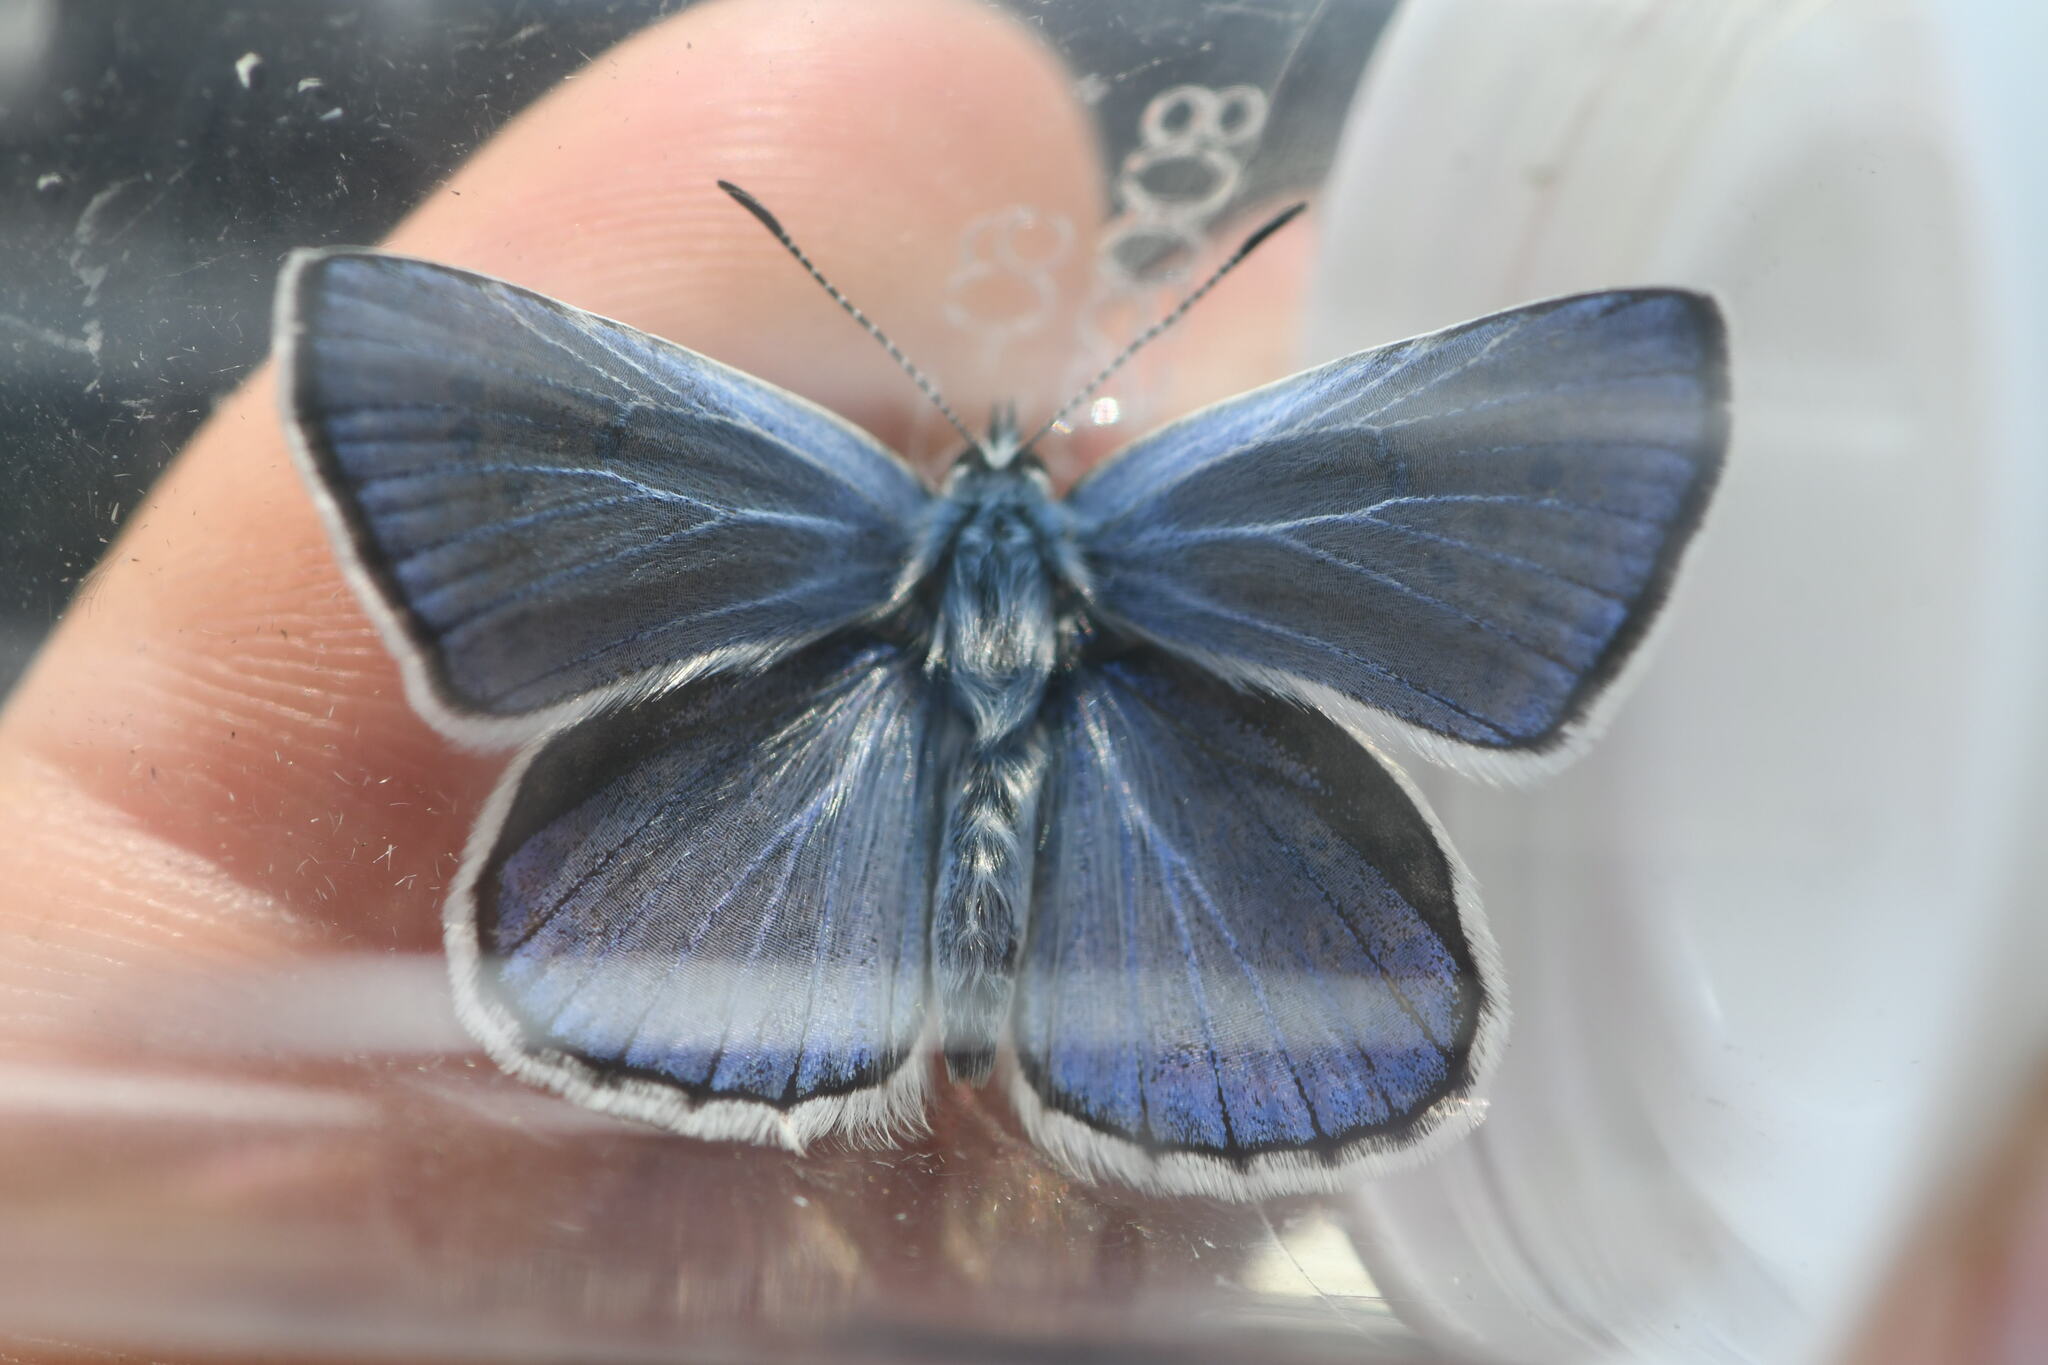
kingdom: Animalia
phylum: Arthropoda
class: Insecta
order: Lepidoptera
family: Lycaenidae
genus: Plebicula
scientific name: Plebicula escheri
